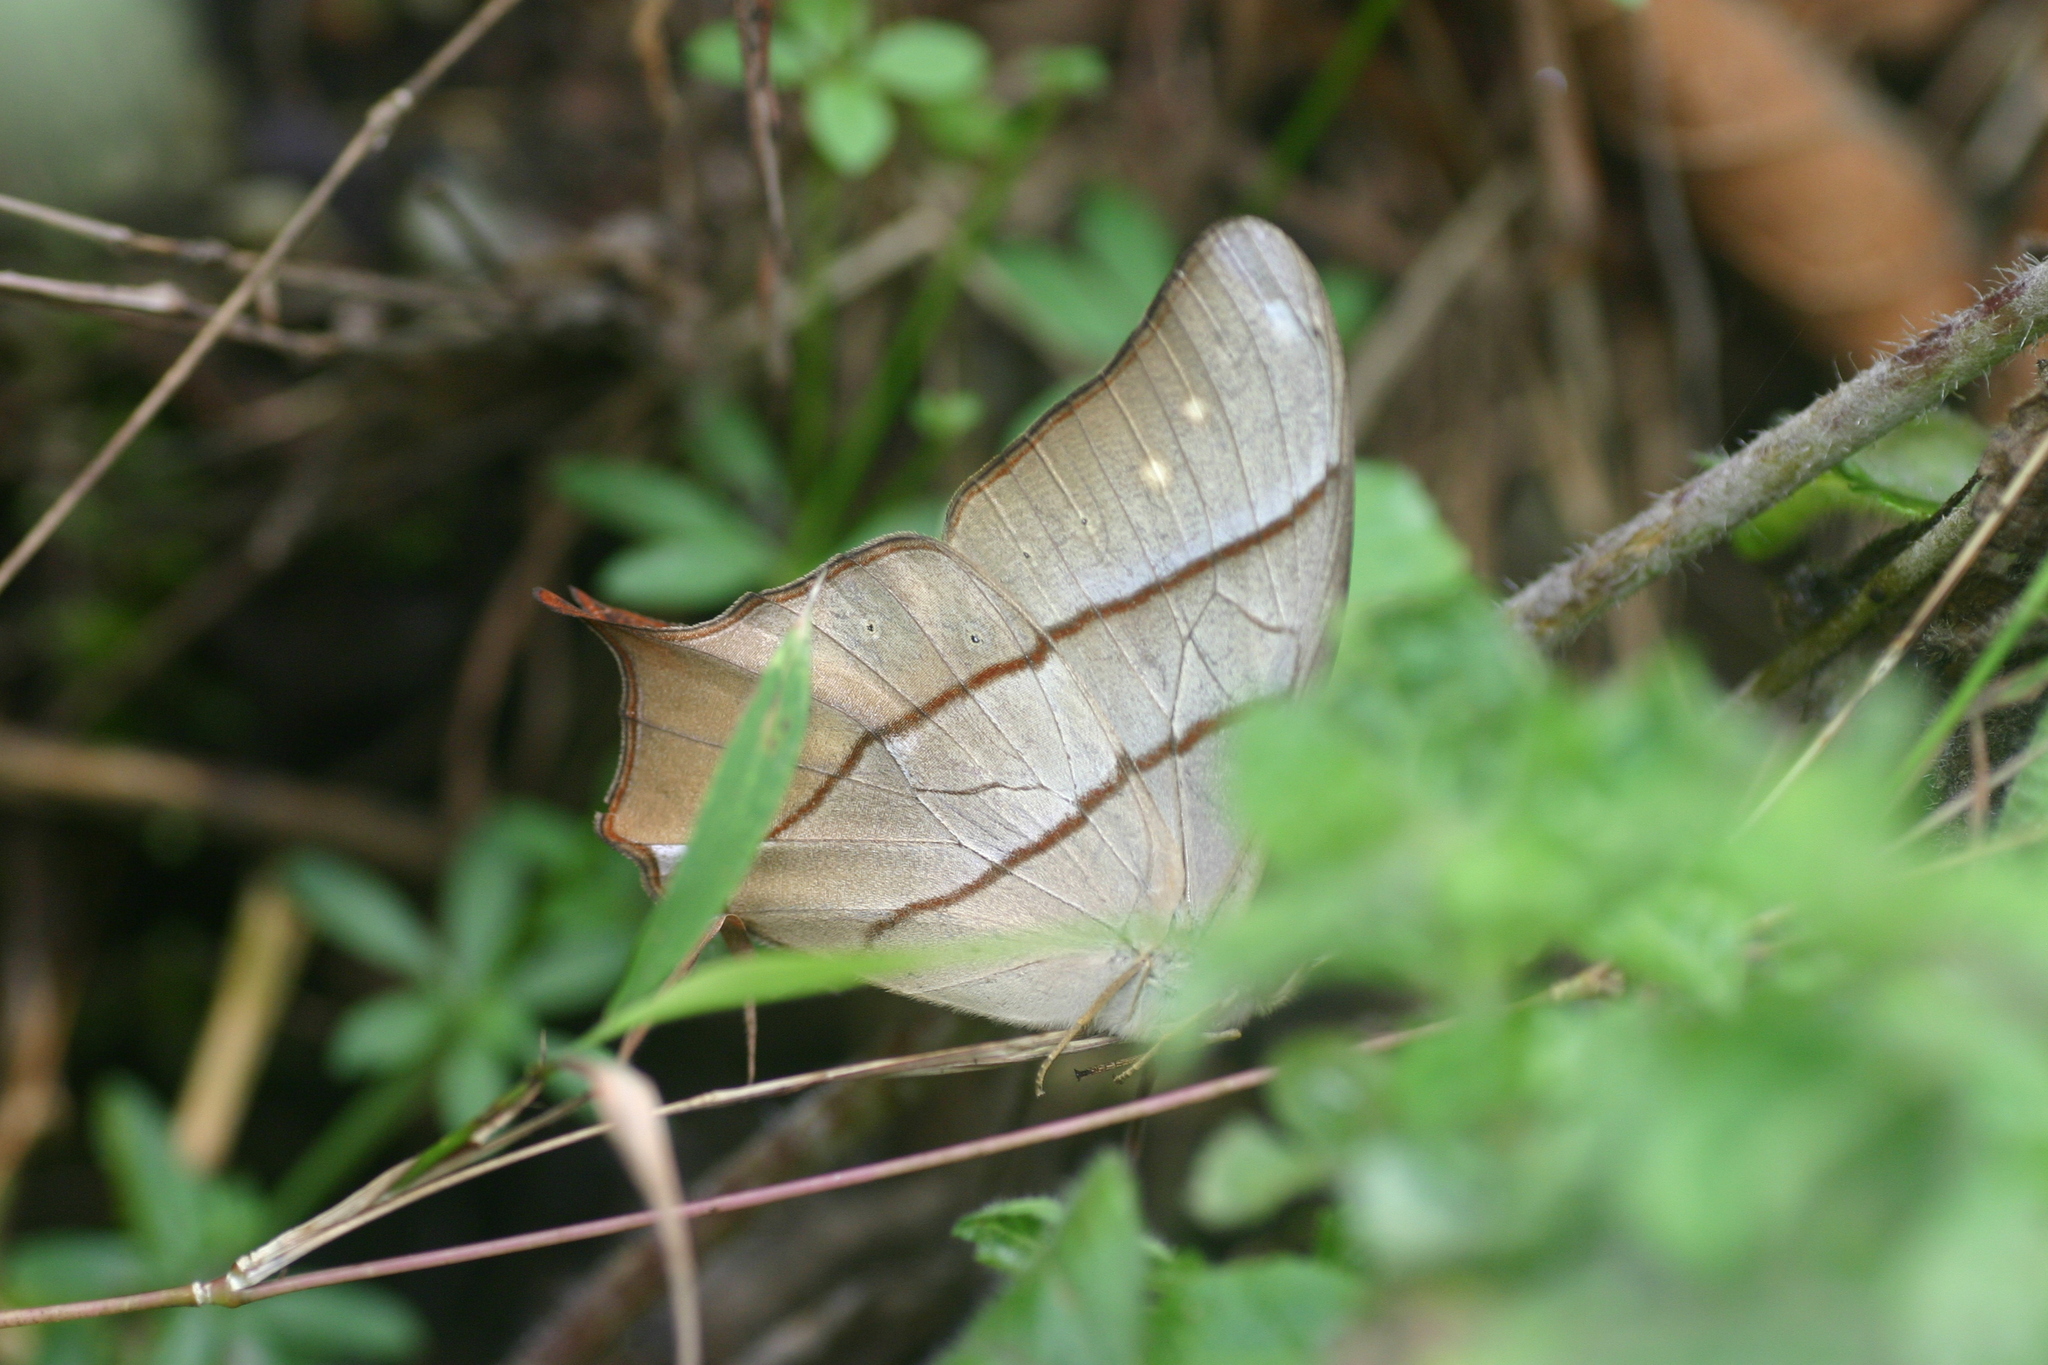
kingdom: Animalia
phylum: Arthropoda
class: Insecta
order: Lepidoptera
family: Nymphalidae
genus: Lethe
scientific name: Lethe kansa
